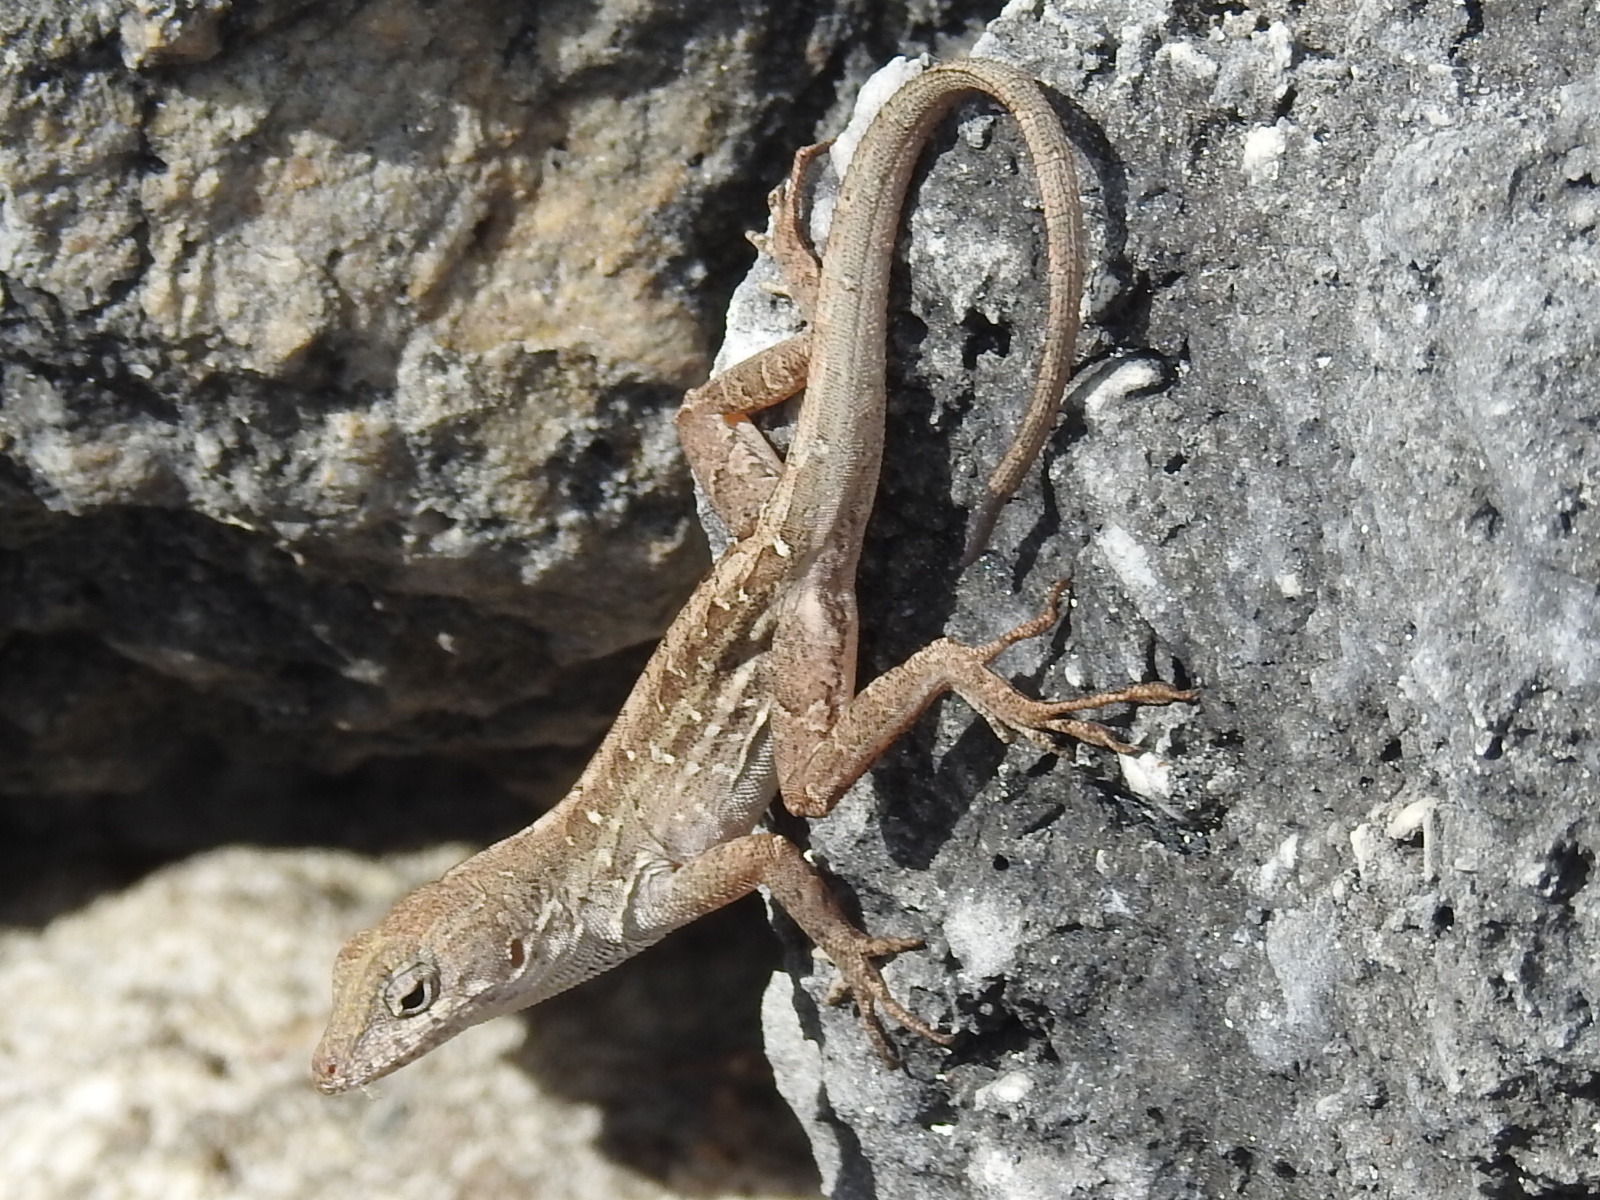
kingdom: Animalia
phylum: Chordata
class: Squamata
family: Dactyloidae
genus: Anolis
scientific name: Anolis sagrei
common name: Brown anole
